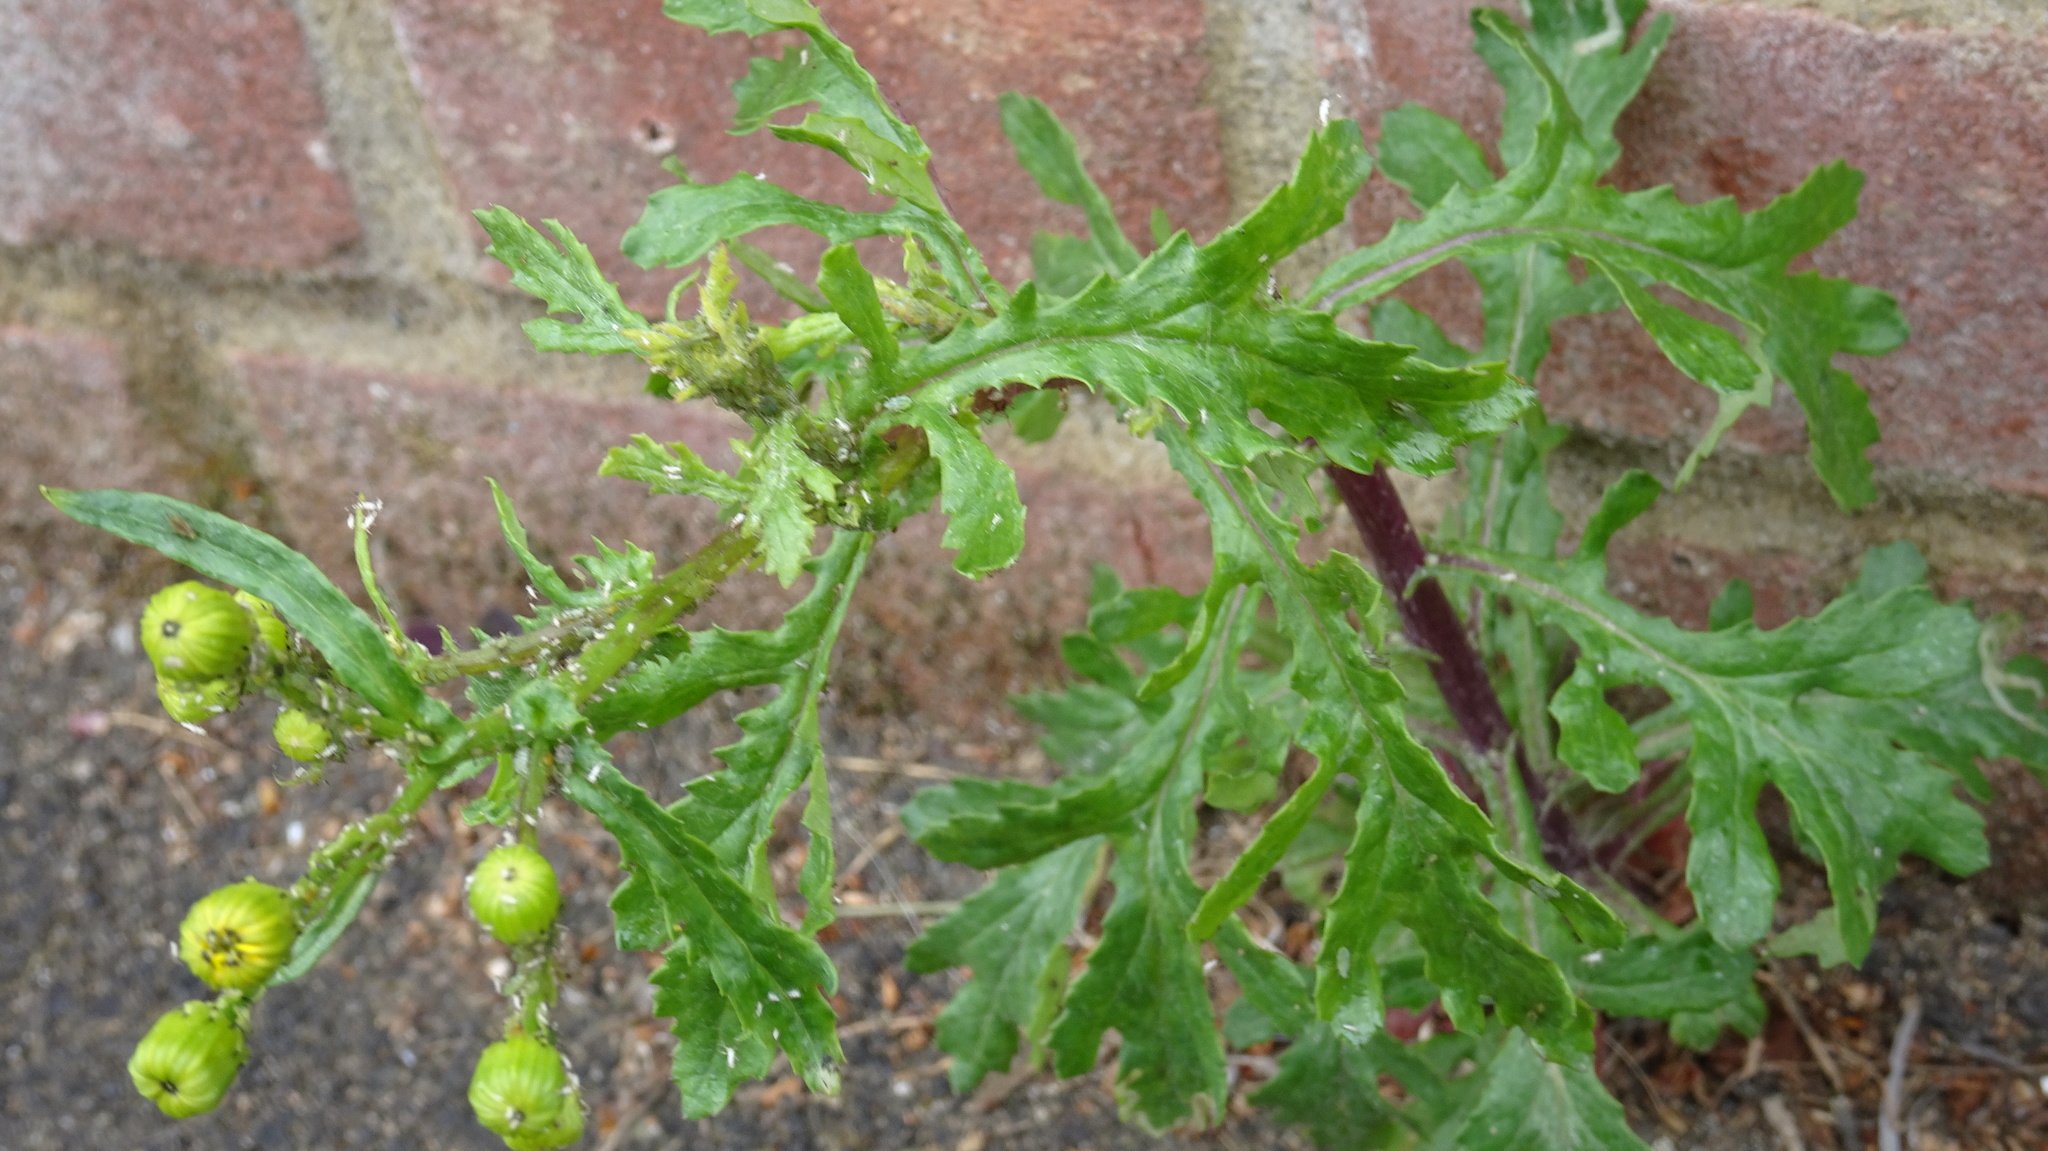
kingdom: Plantae
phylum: Tracheophyta
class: Magnoliopsida
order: Asterales
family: Asteraceae
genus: Senecio
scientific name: Senecio vulgaris
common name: Old-man-in-the-spring
